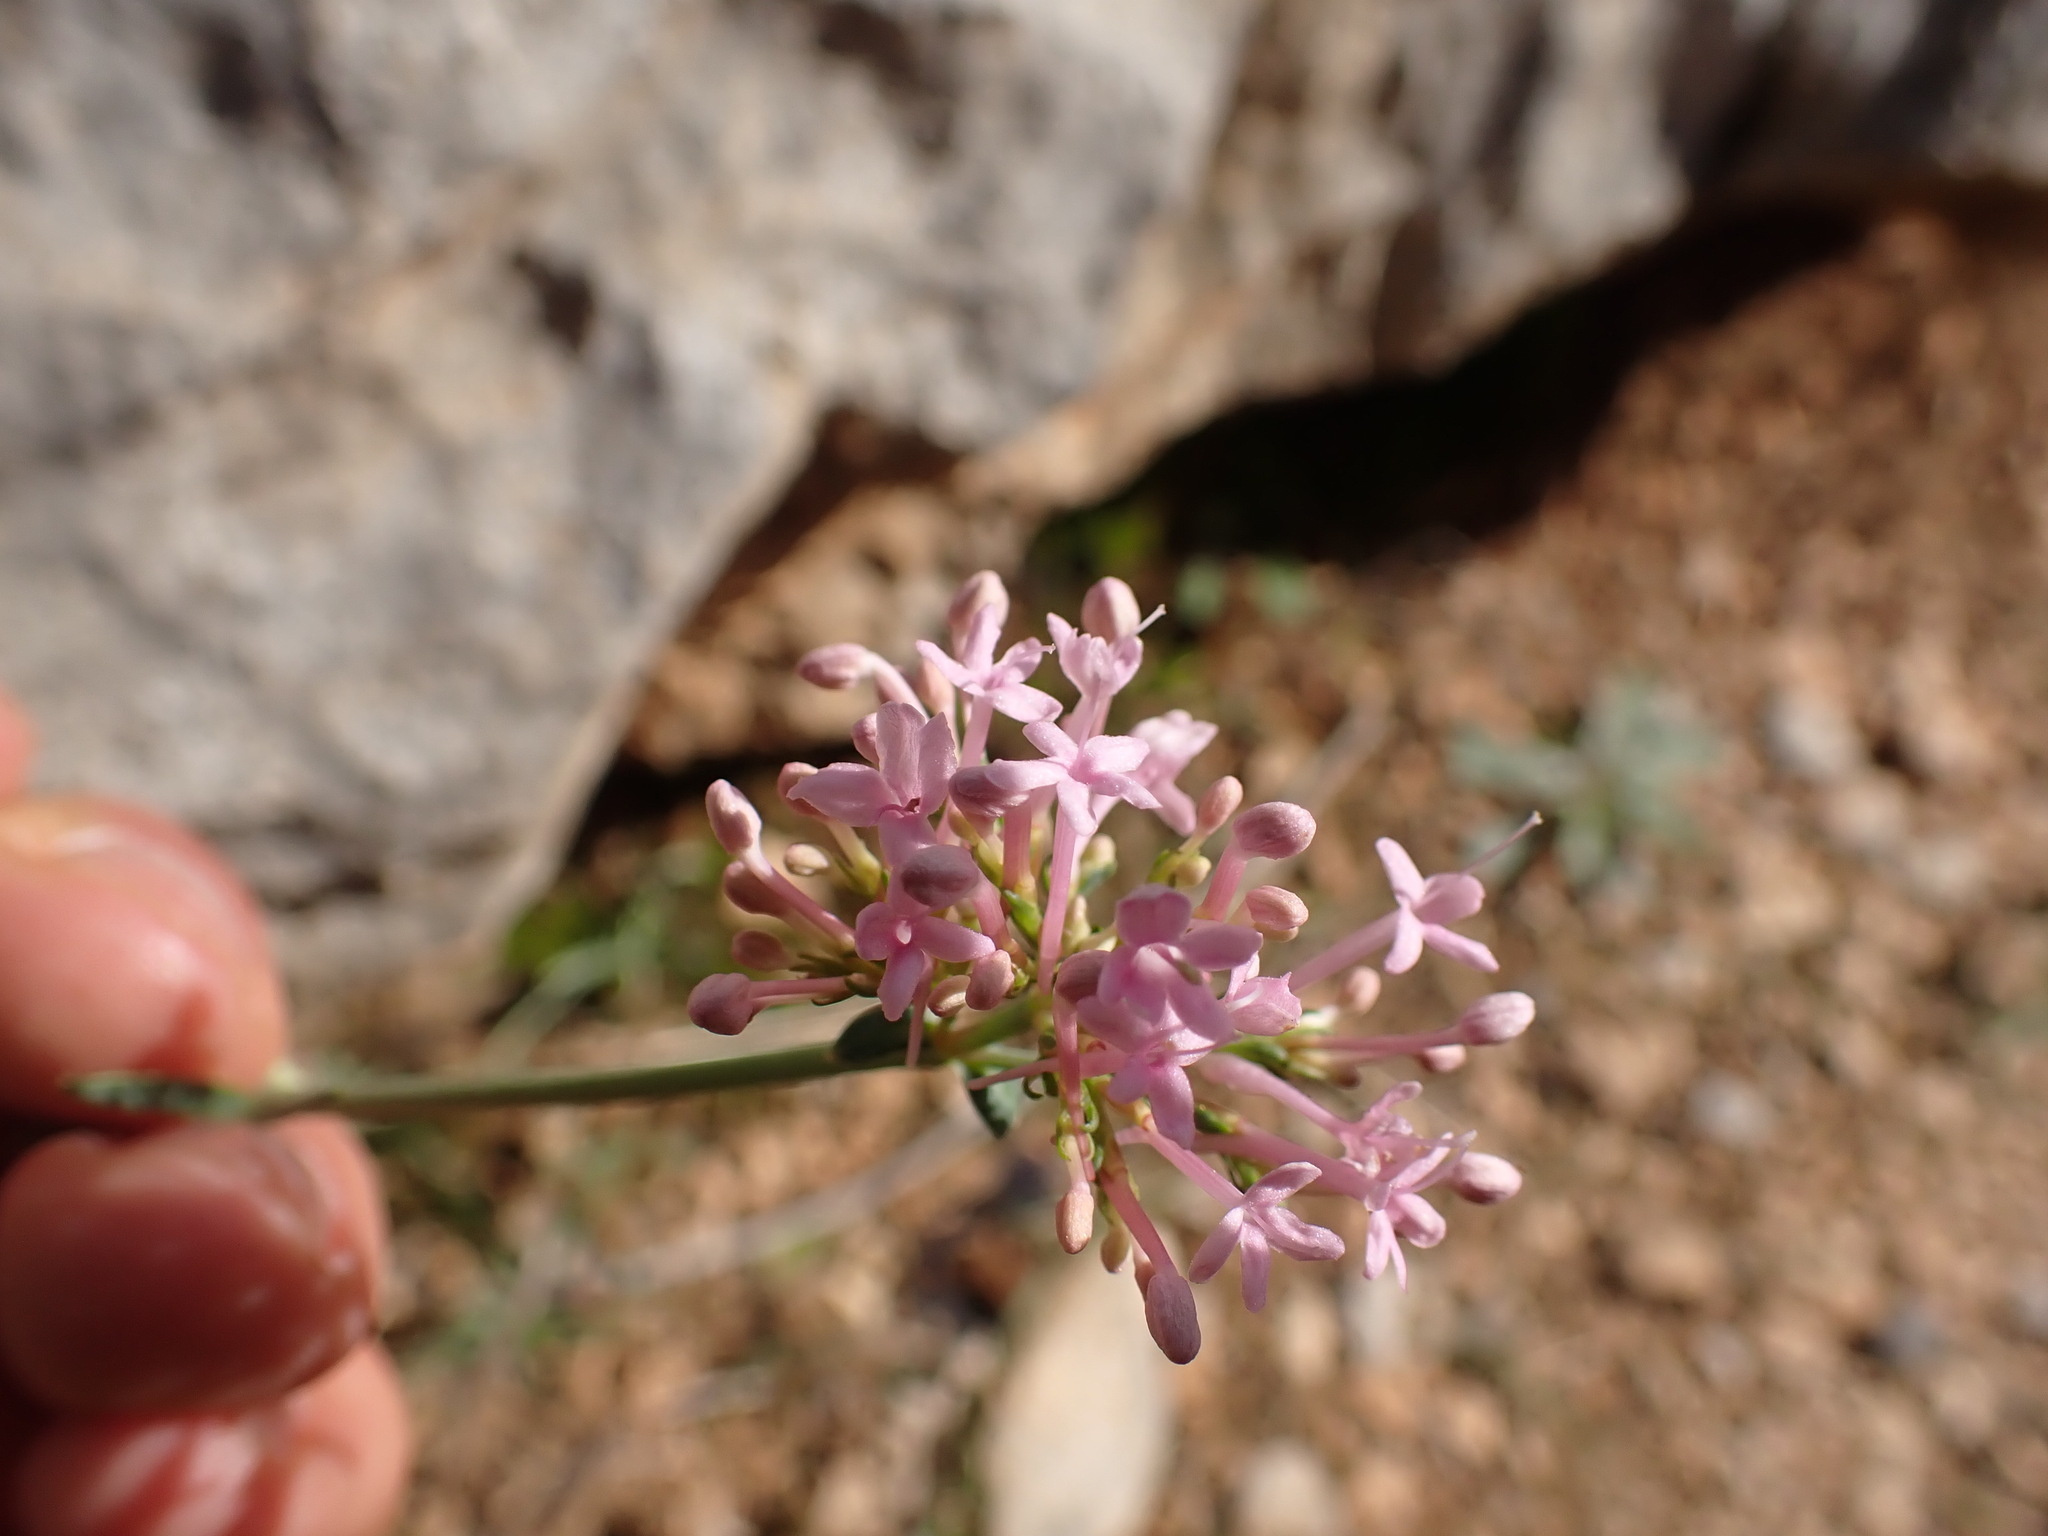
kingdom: Plantae
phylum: Tracheophyta
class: Magnoliopsida
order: Dipsacales
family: Caprifoliaceae
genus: Centranthus
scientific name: Centranthus lecoqii
